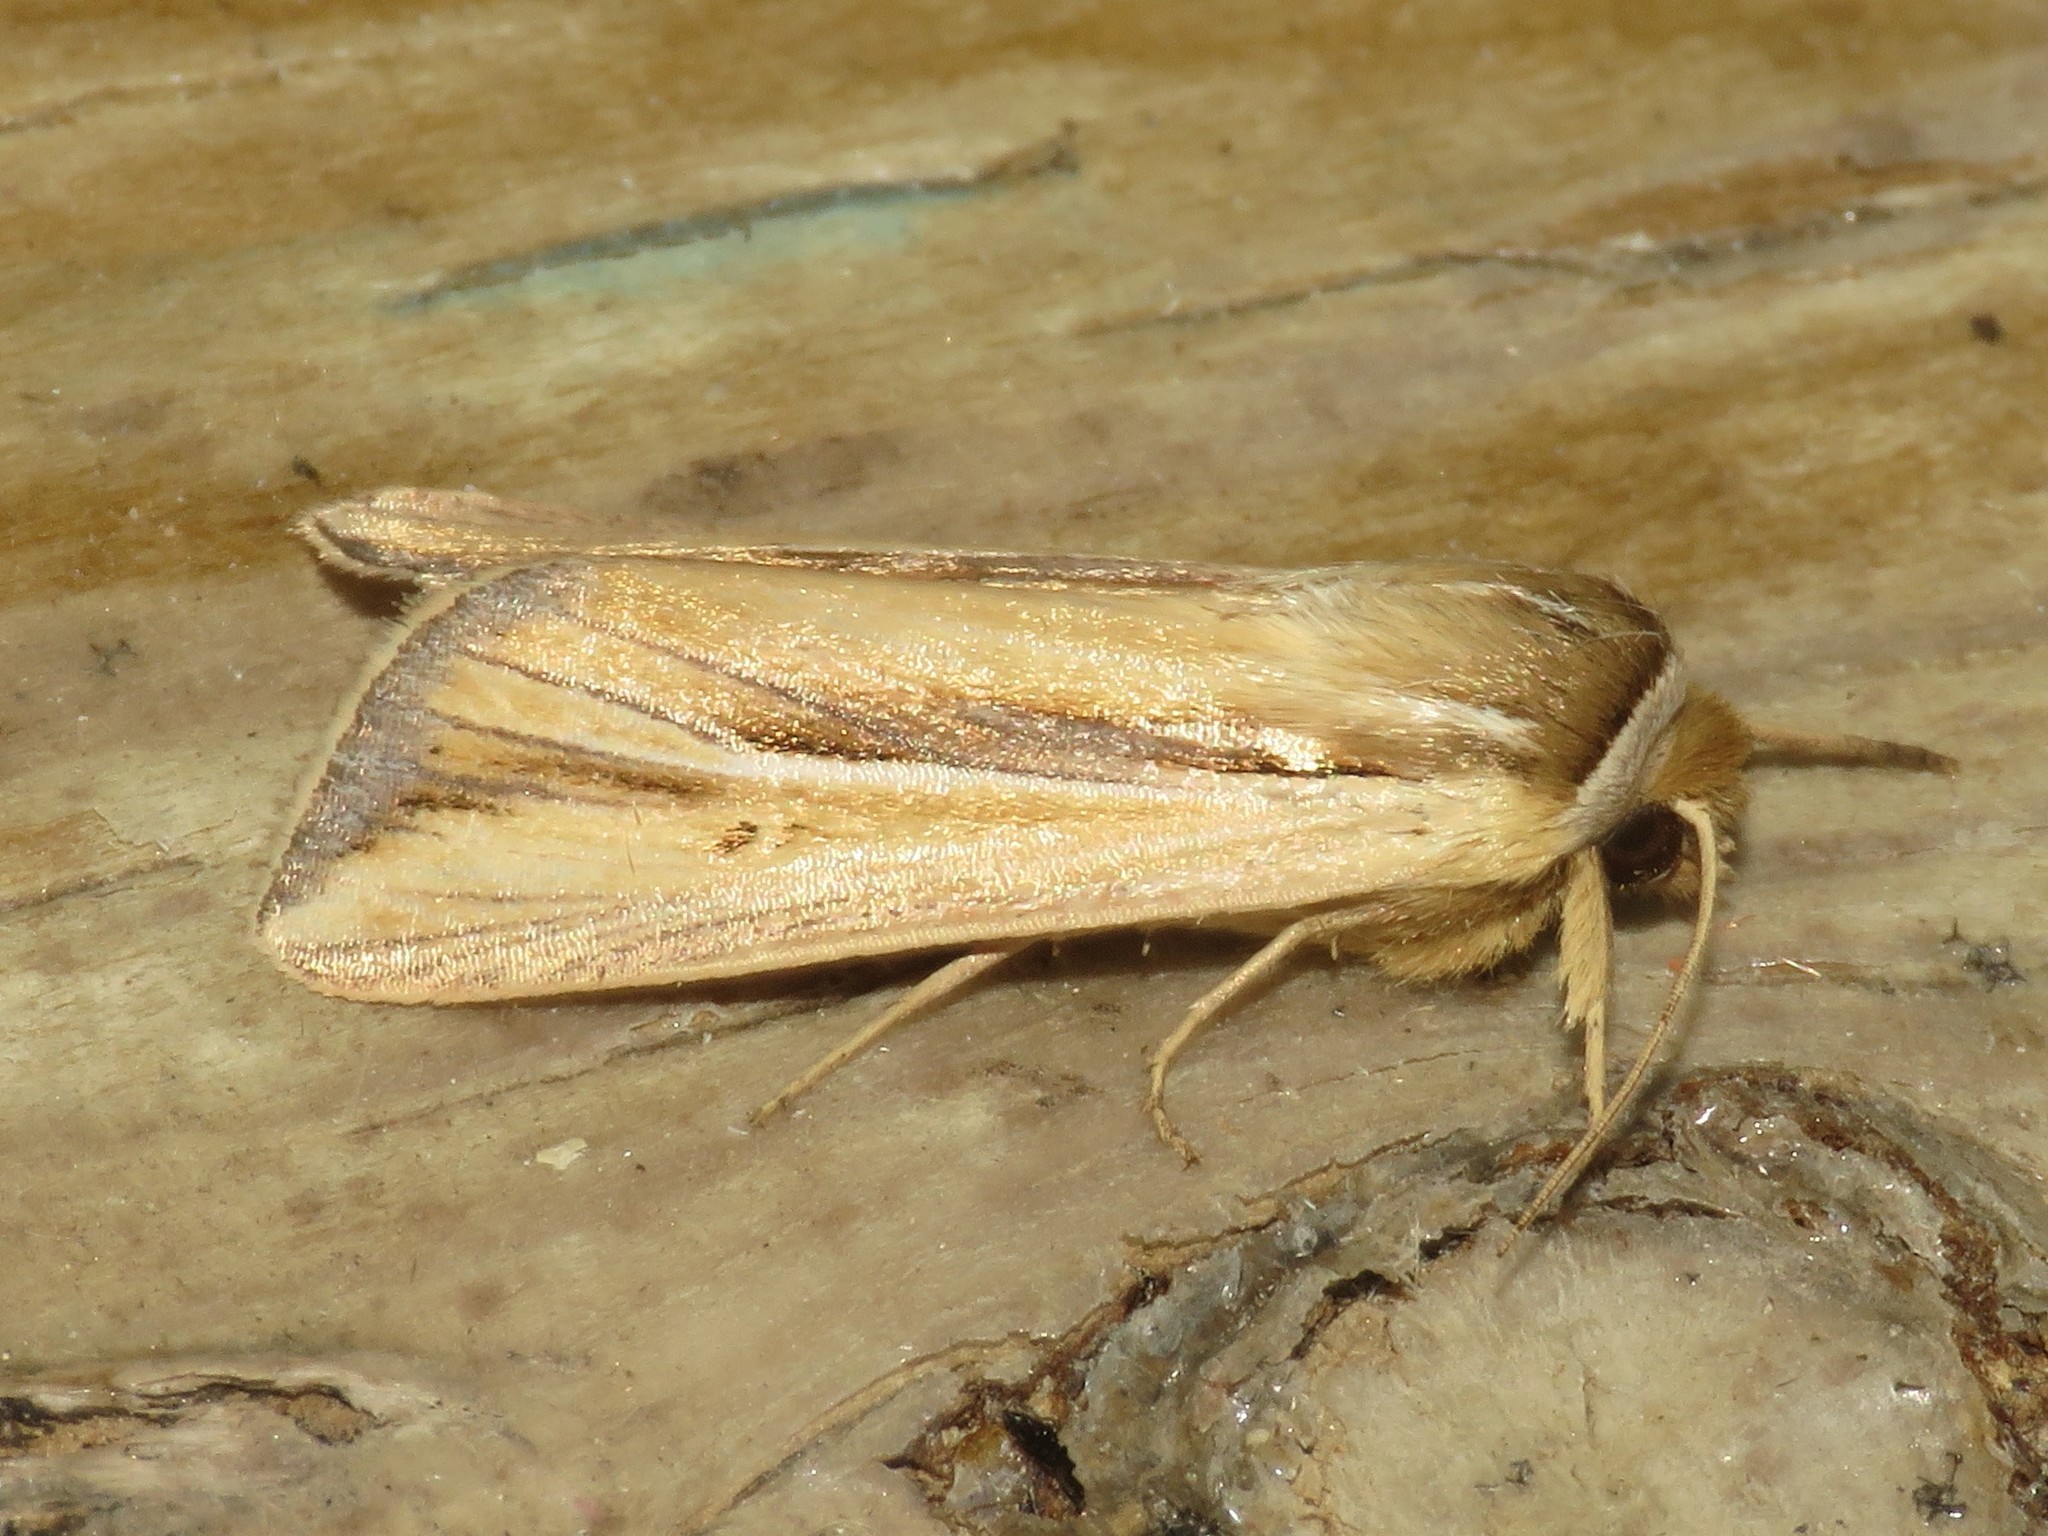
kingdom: Animalia
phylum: Arthropoda
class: Insecta
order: Lepidoptera
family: Noctuidae
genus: Dargida
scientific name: Dargida diffusa
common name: Wheat head armyworm
